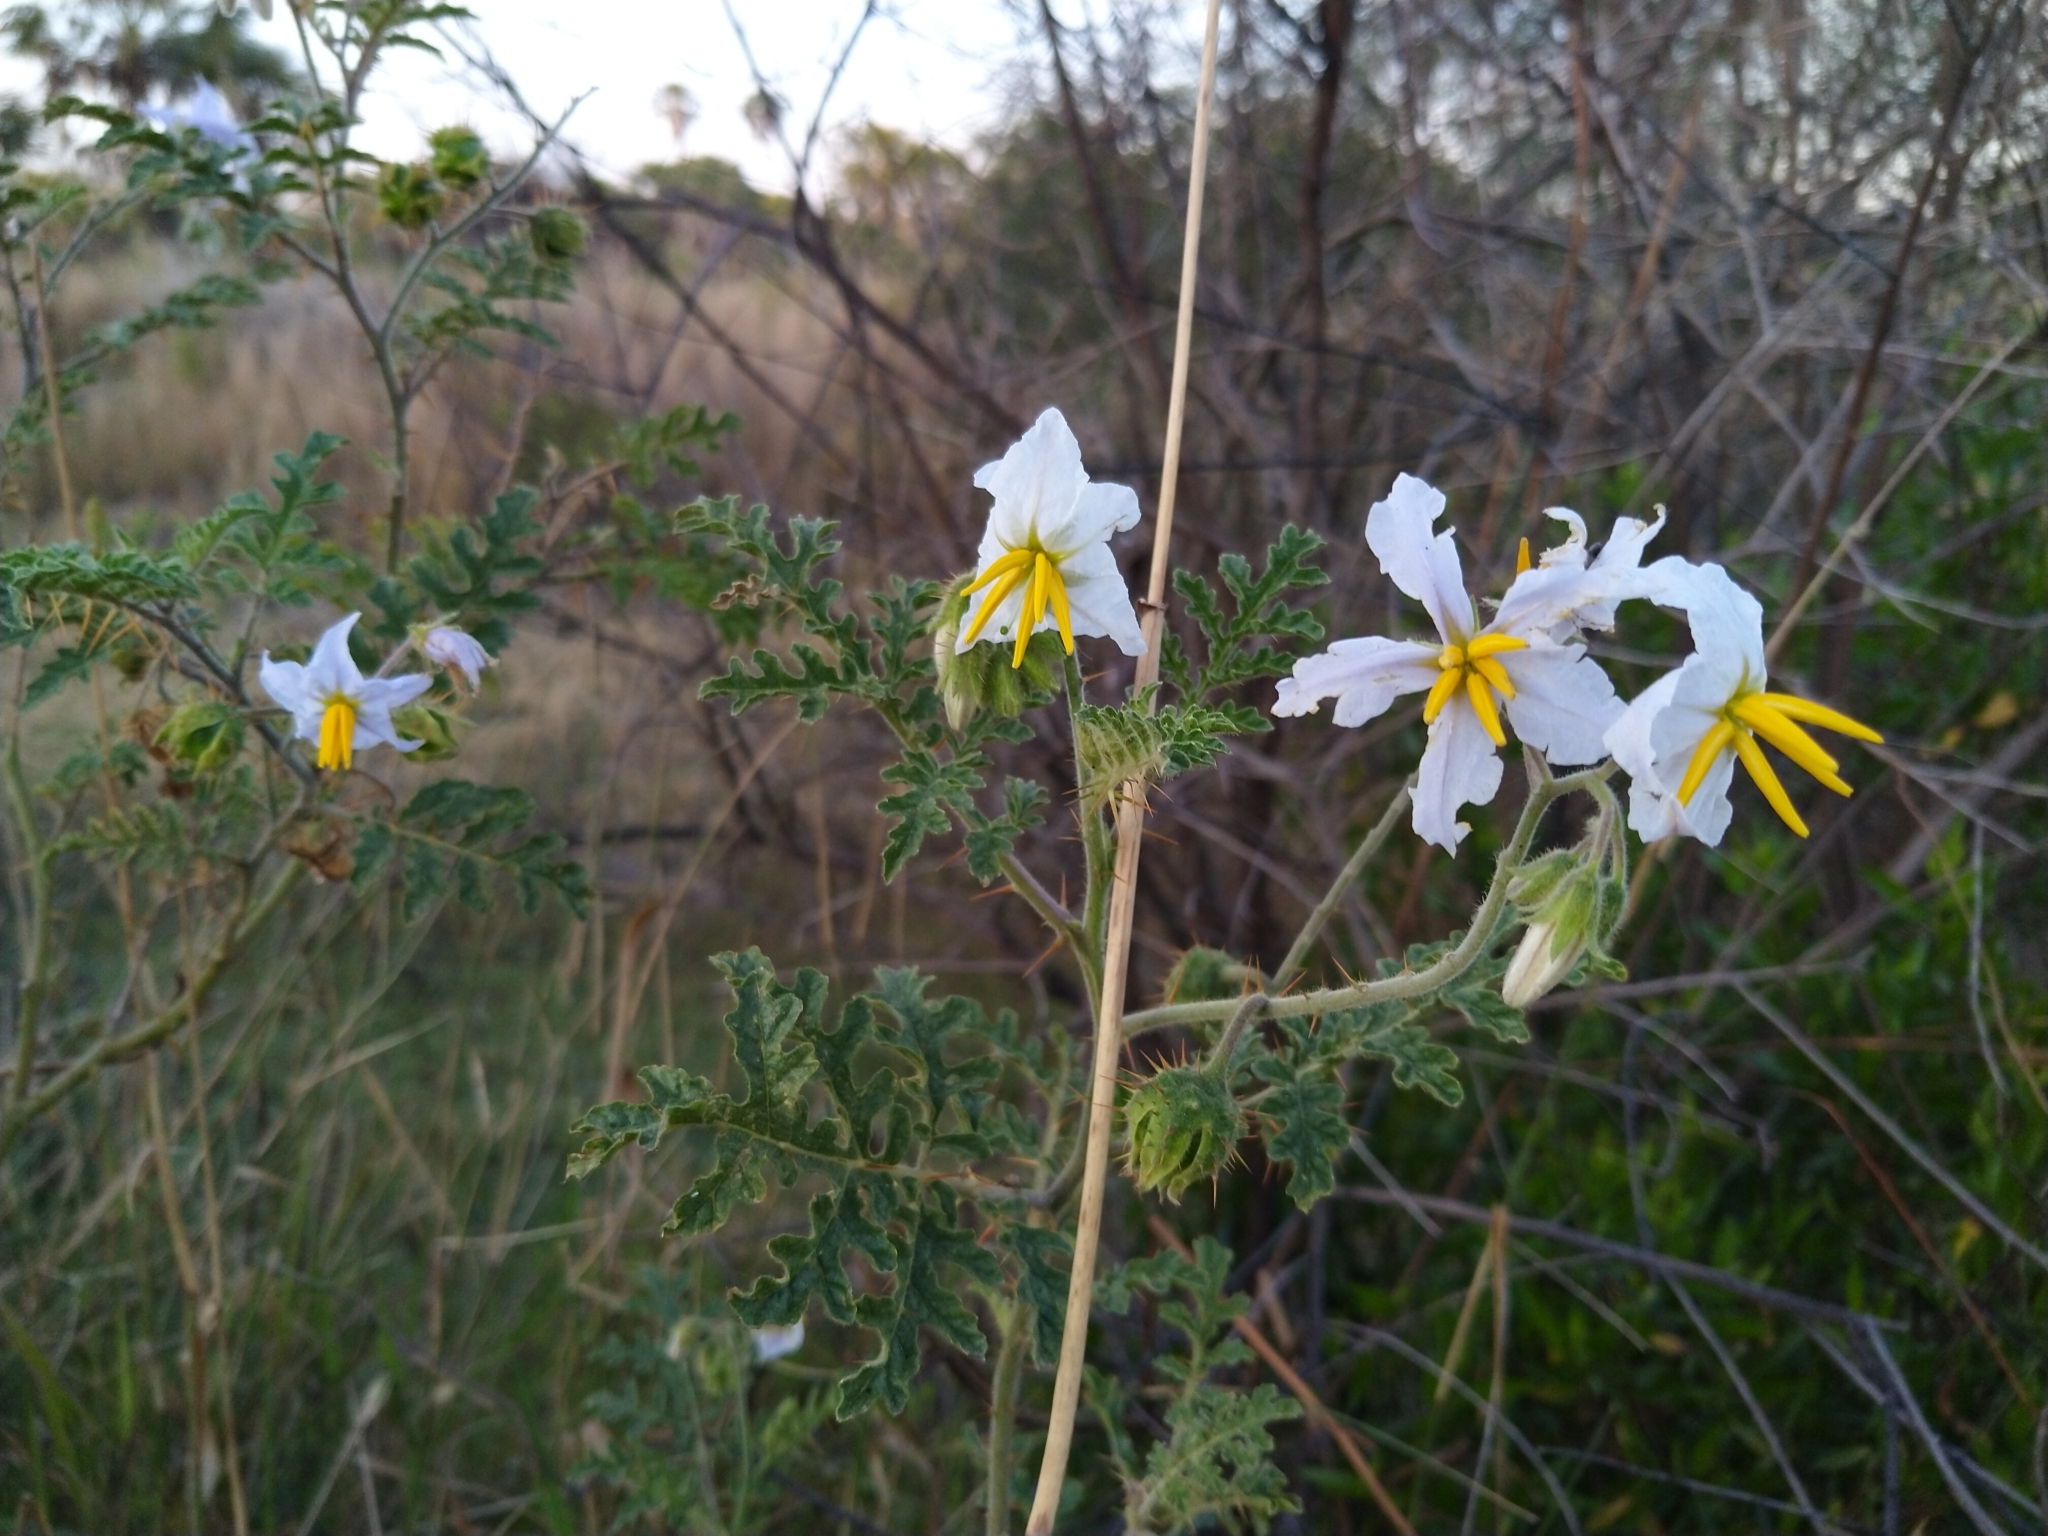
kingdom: Plantae
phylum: Tracheophyta
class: Magnoliopsida
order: Solanales
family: Solanaceae
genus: Solanum
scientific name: Solanum sisymbriifolium
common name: Red buffalo-bur
